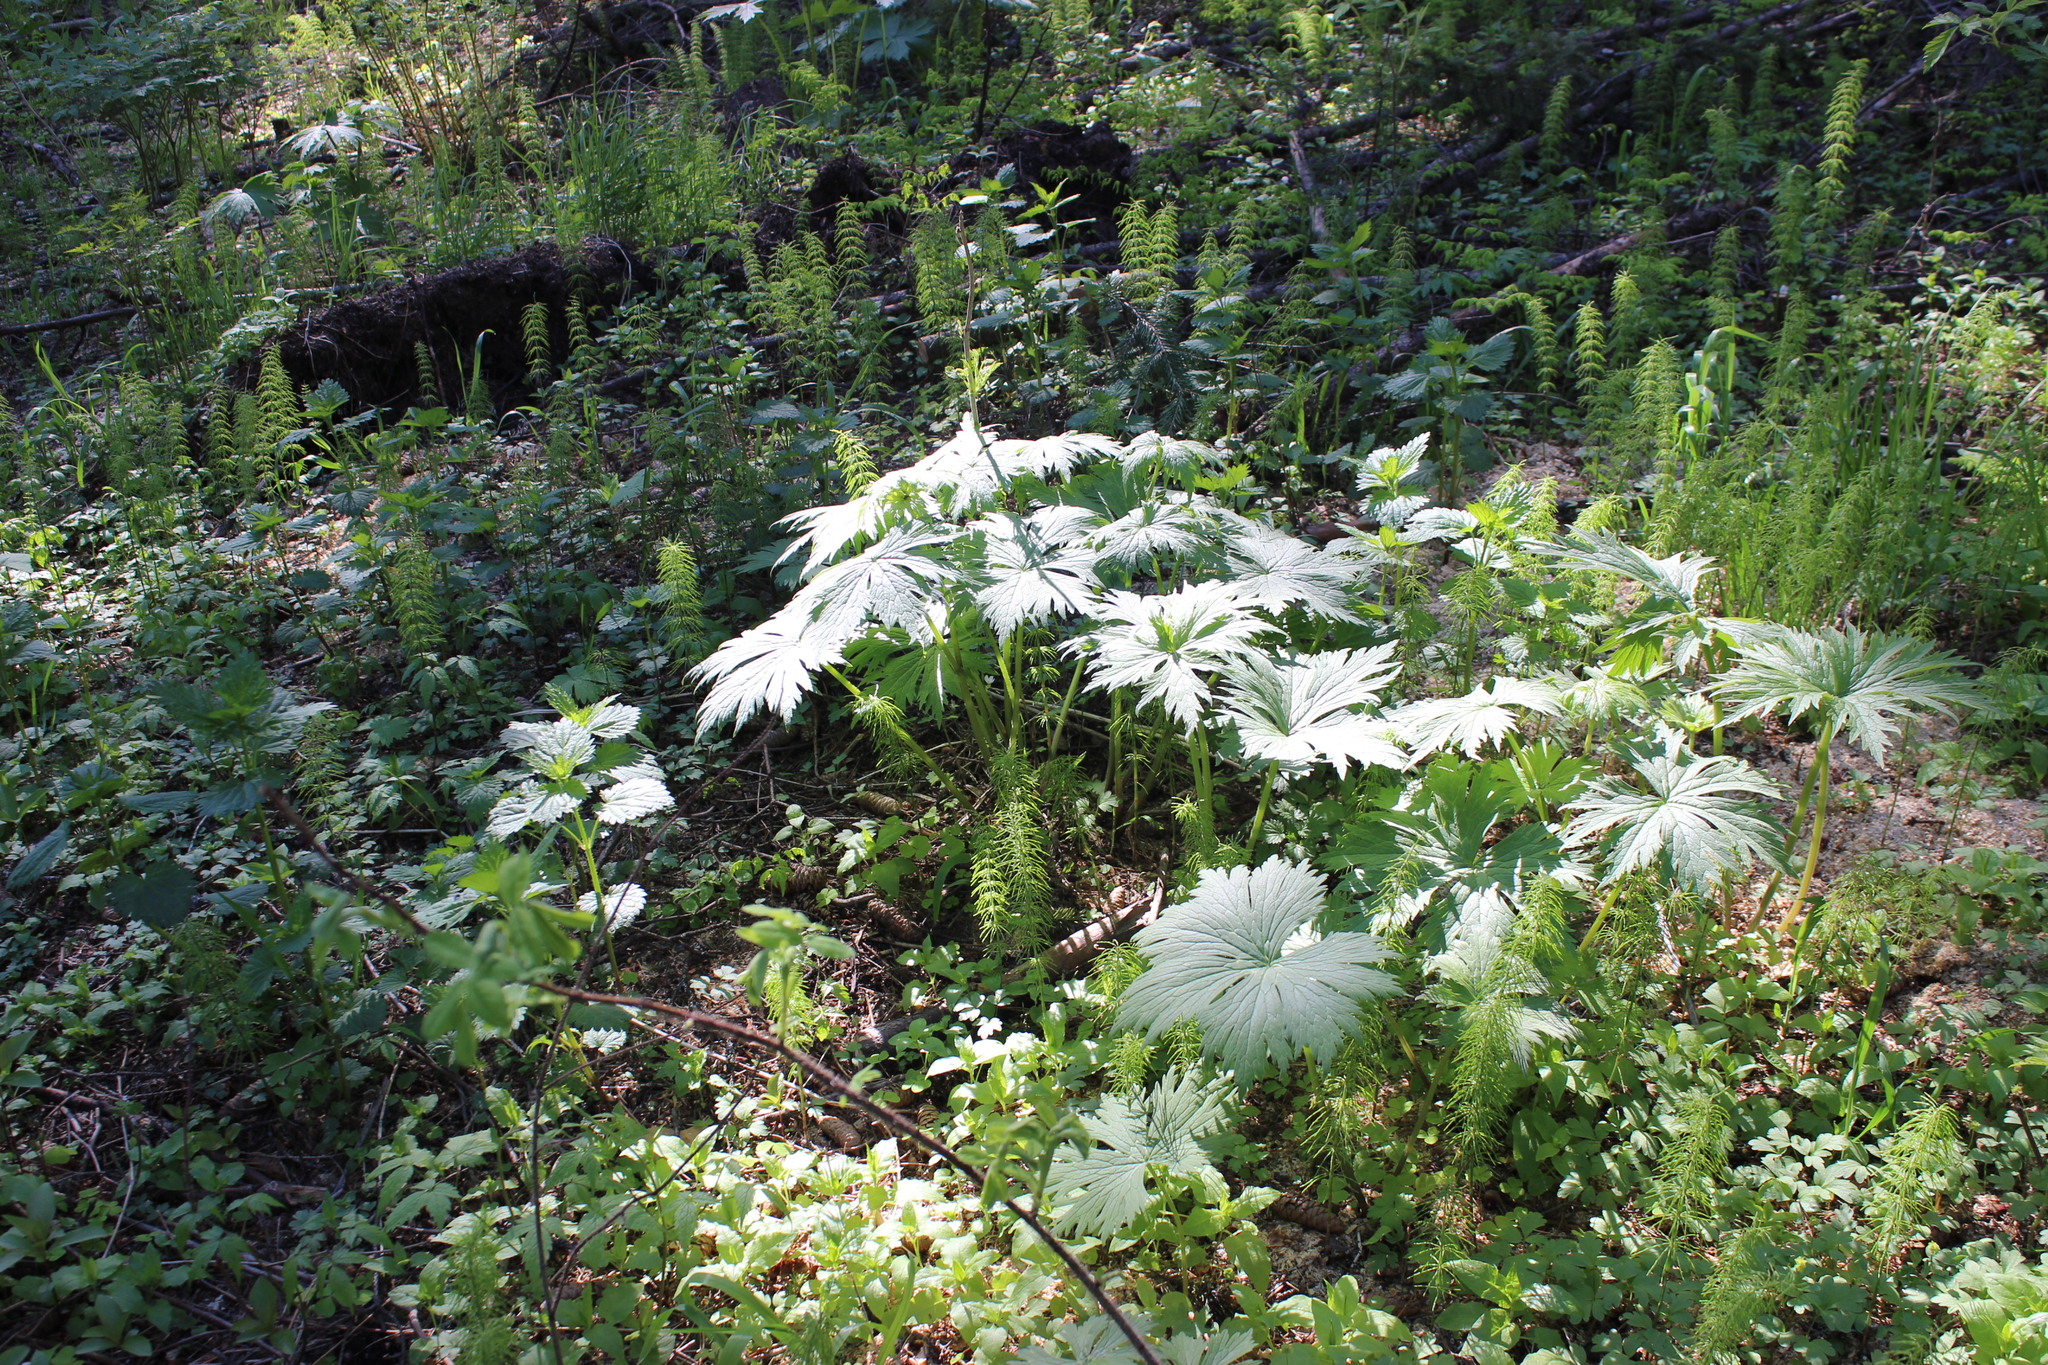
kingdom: Plantae
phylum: Tracheophyta
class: Magnoliopsida
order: Ranunculales
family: Ranunculaceae
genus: Aconitum
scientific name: Aconitum septentrionale
